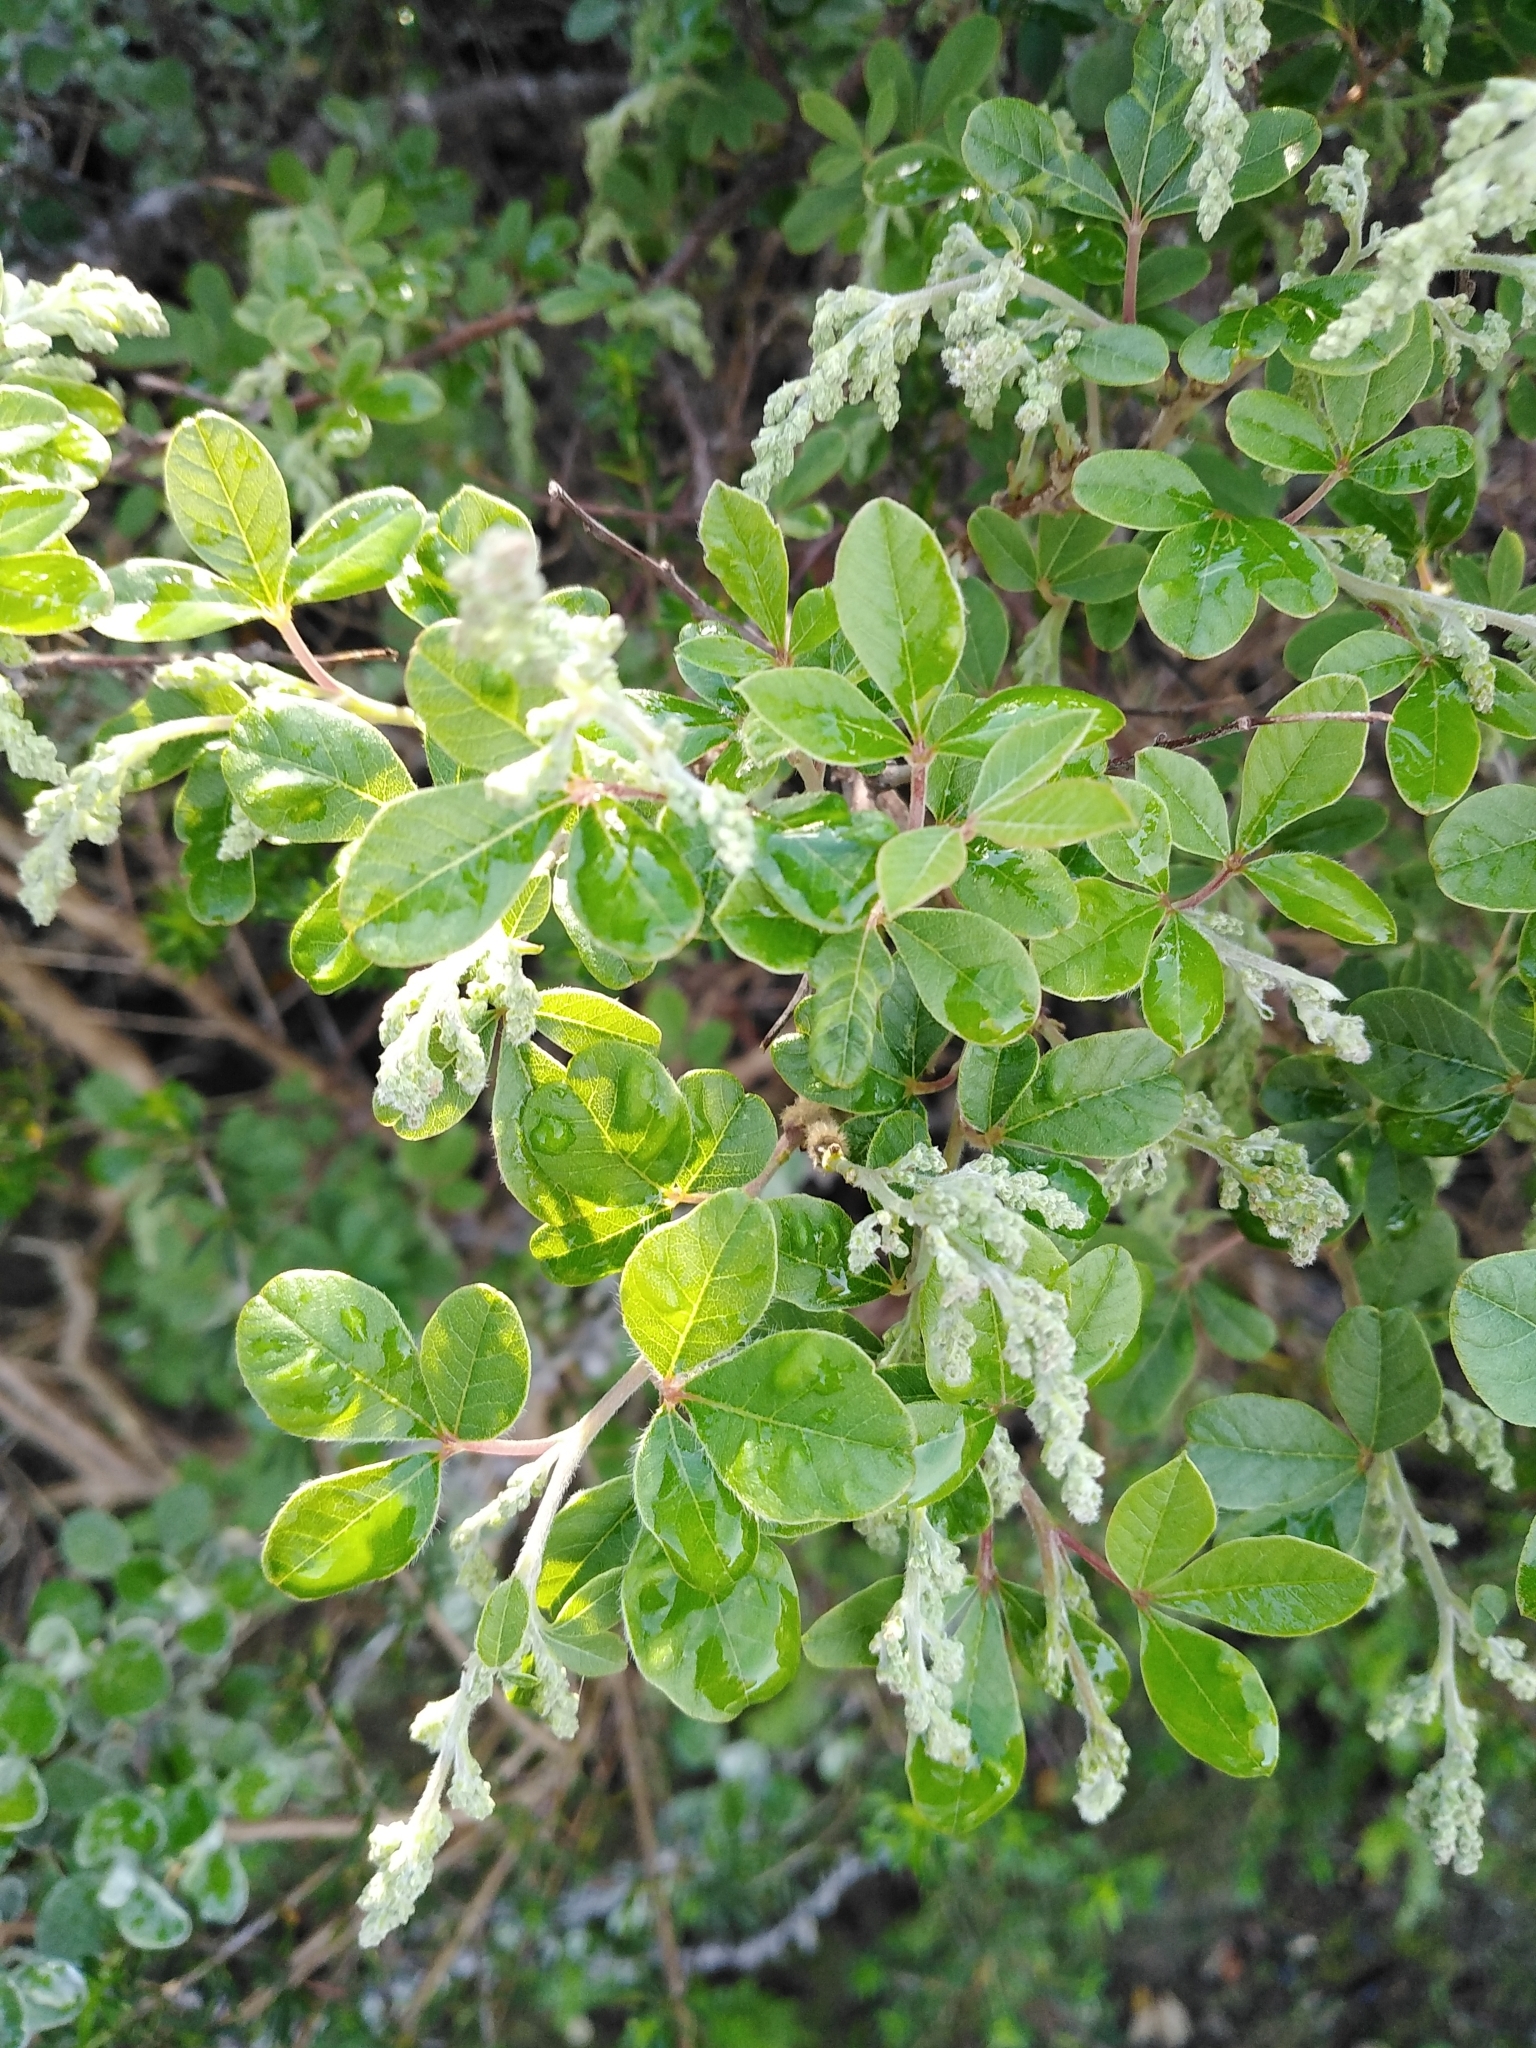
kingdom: Plantae
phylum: Tracheophyta
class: Magnoliopsida
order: Sapindales
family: Anacardiaceae
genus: Searsia
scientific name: Searsia tomentosa
